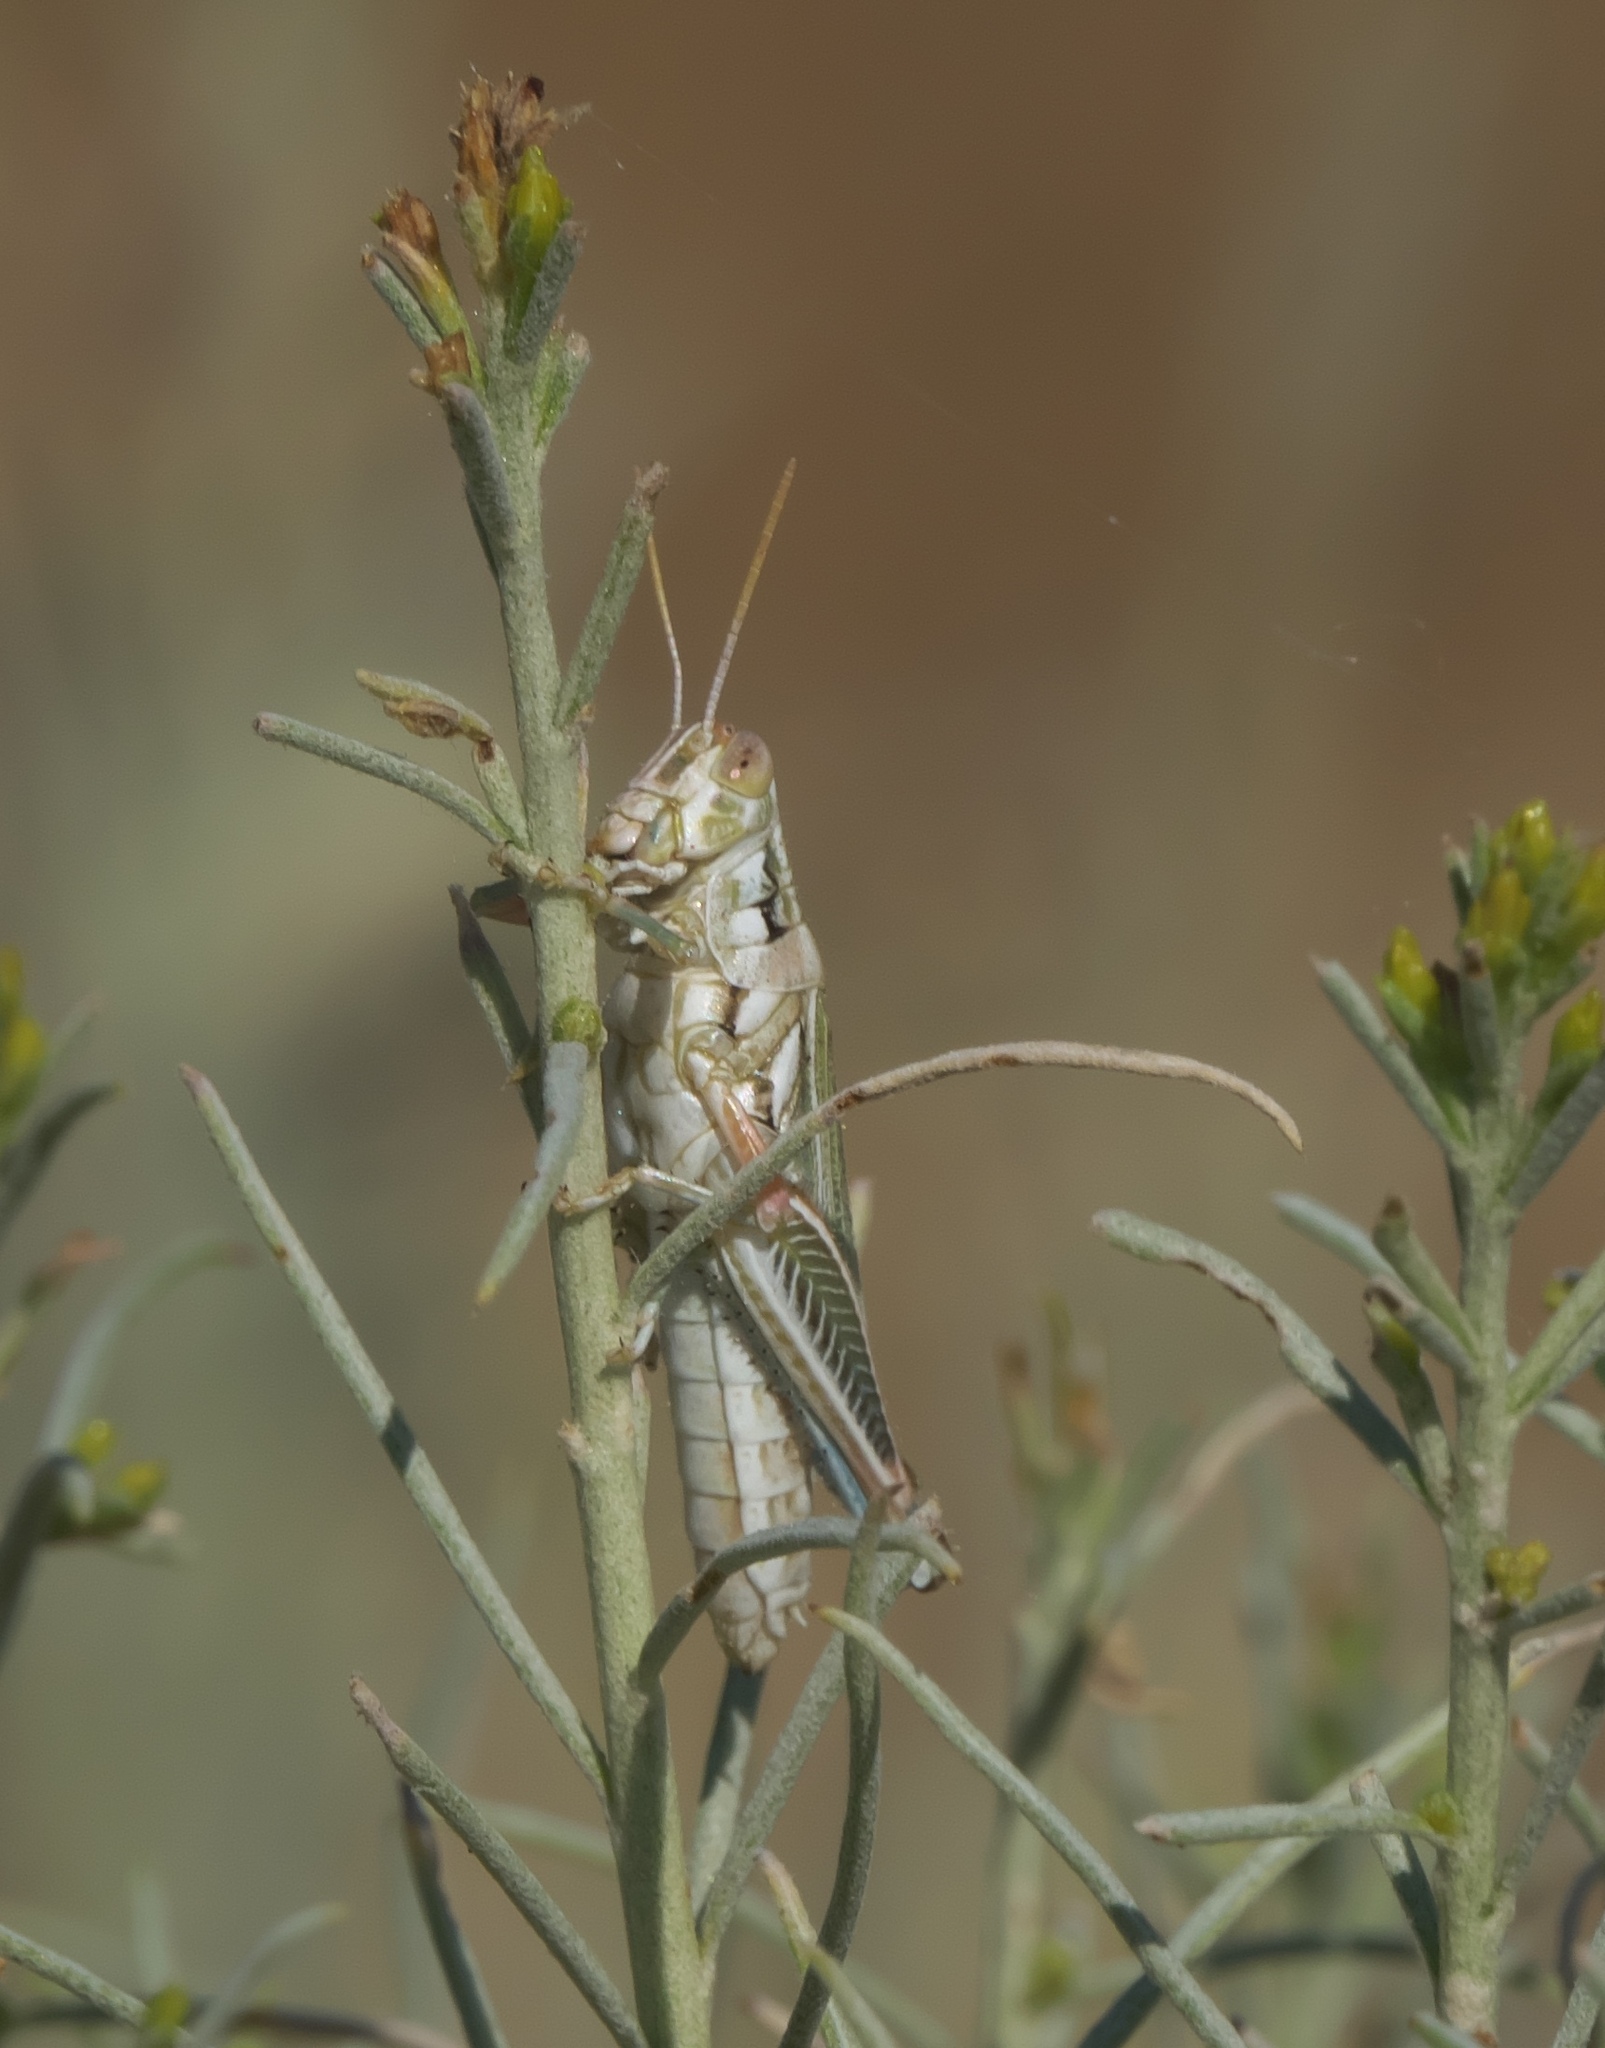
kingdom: Animalia
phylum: Arthropoda
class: Insecta
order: Orthoptera
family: Acrididae
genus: Hesperotettix
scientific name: Hesperotettix viridis
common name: Meadow purple-striped grasshopper
